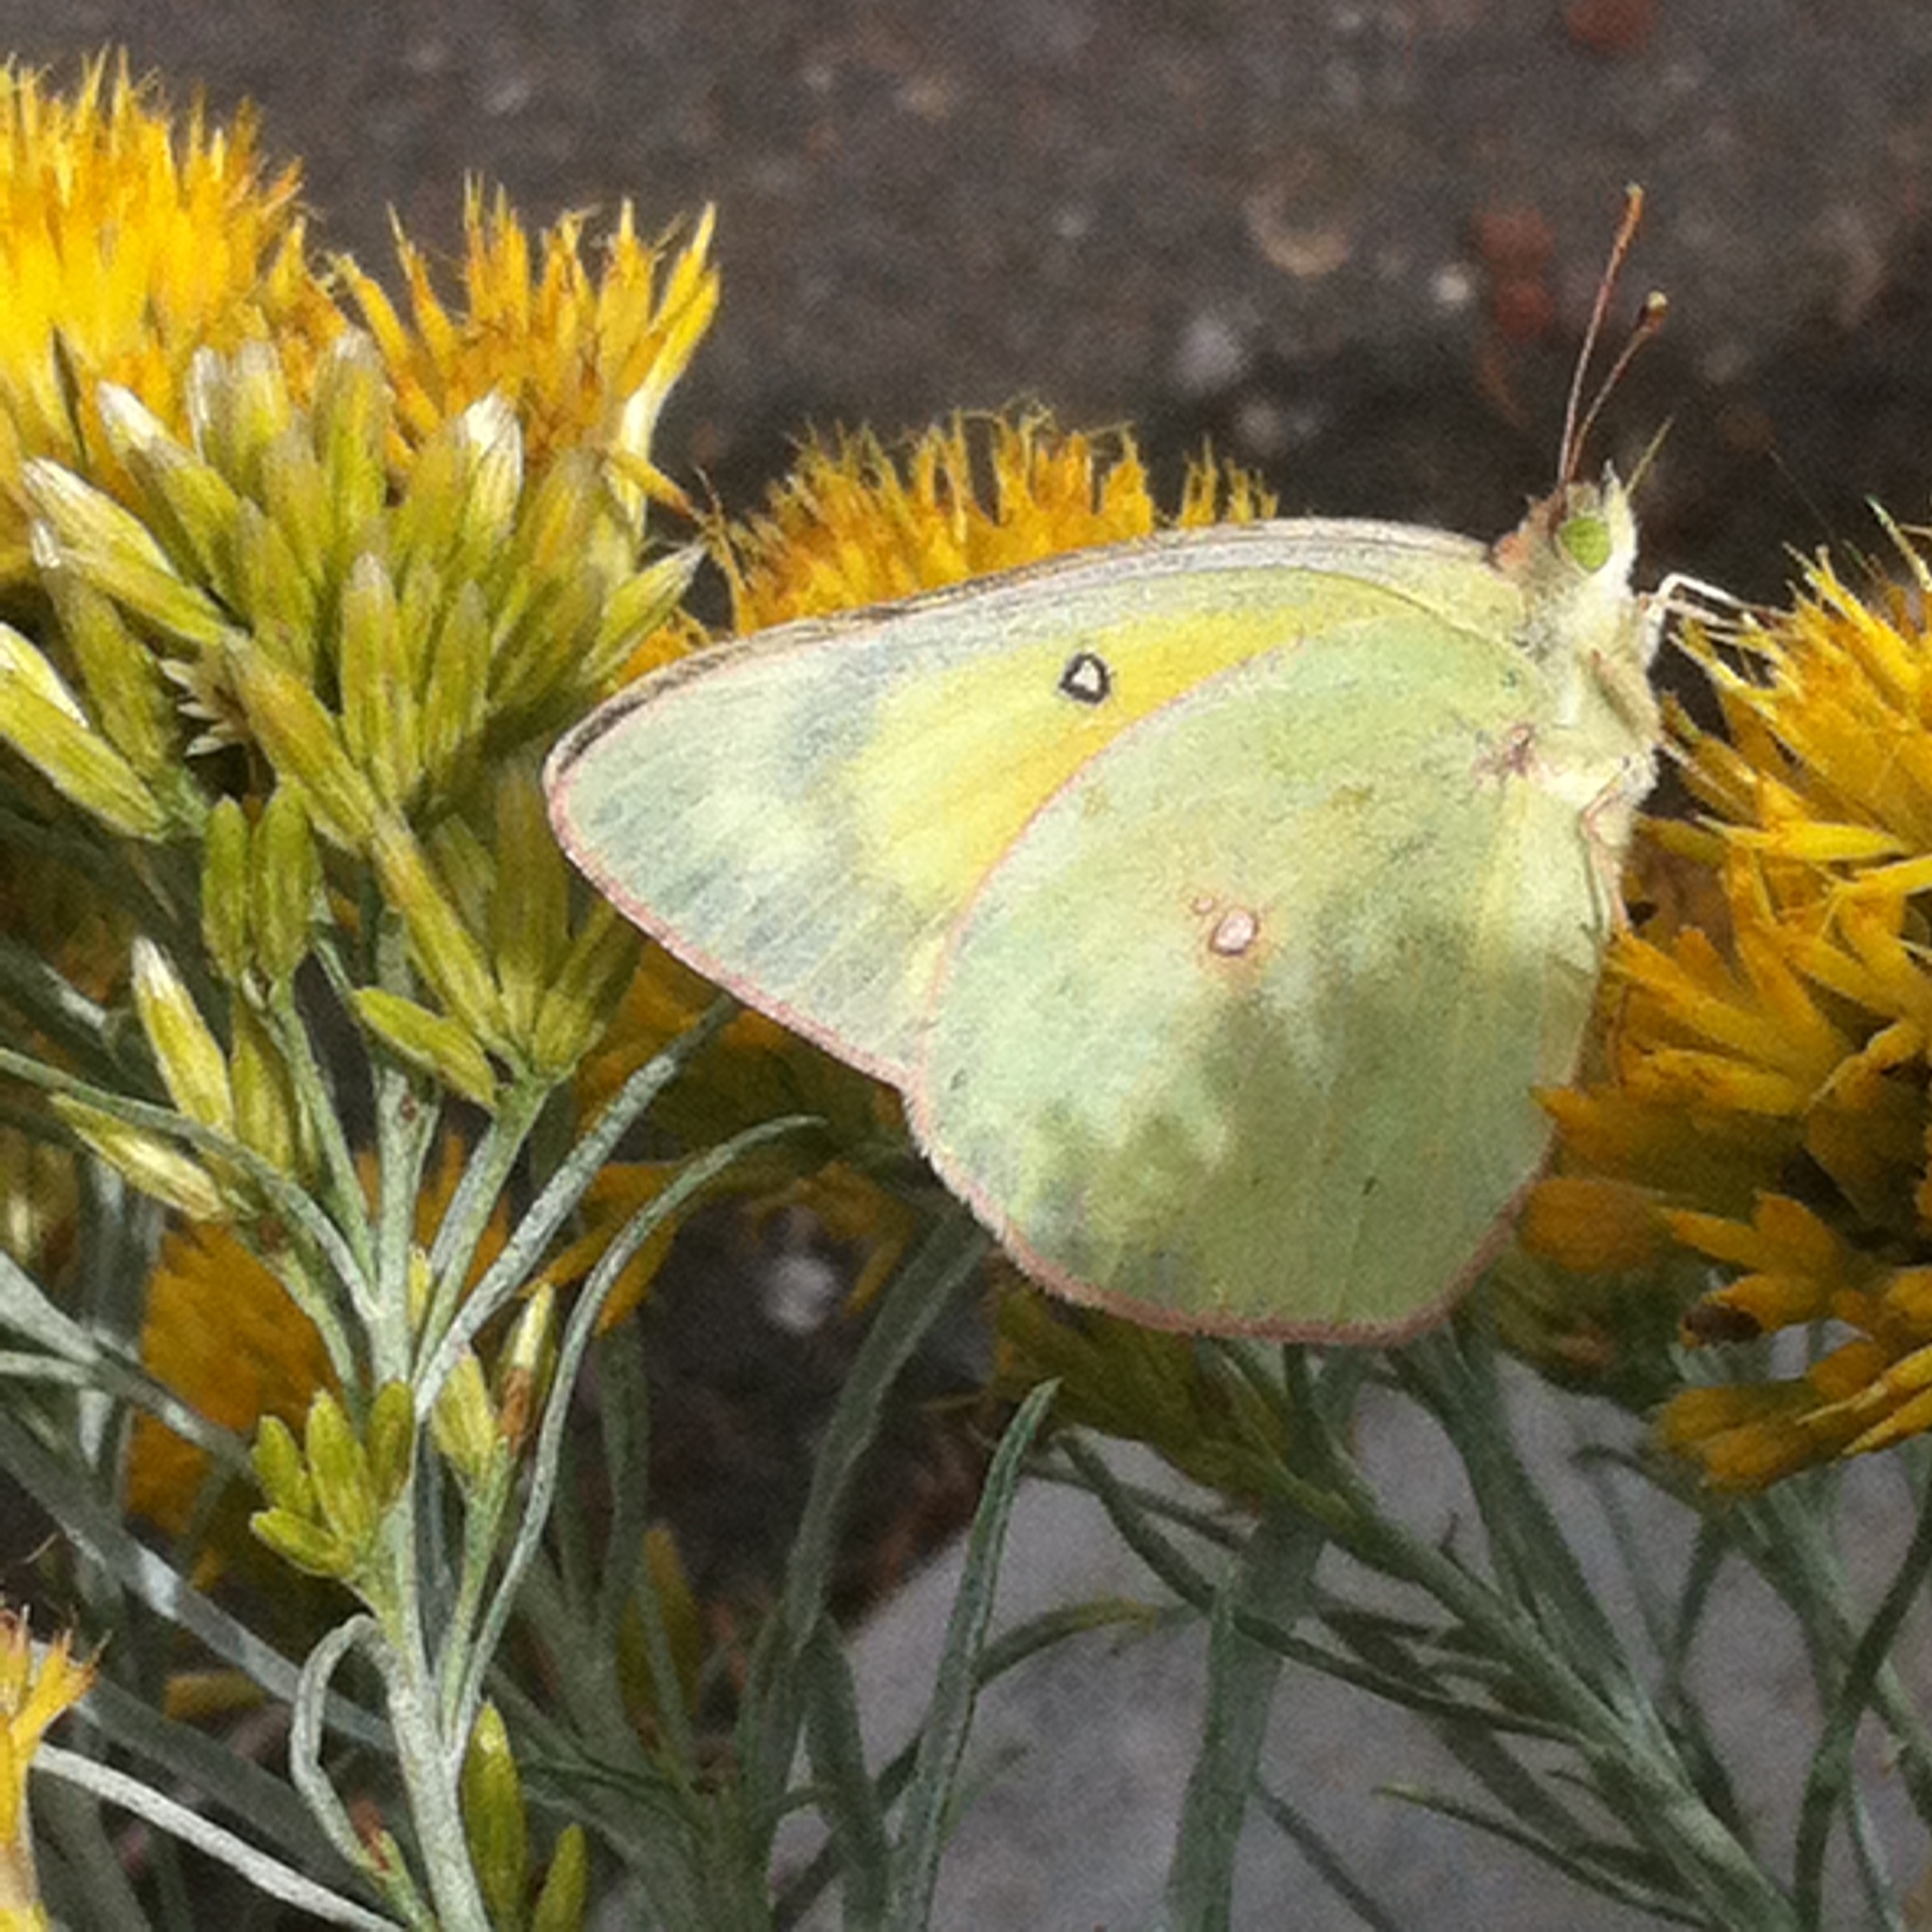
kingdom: Animalia
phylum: Arthropoda
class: Insecta
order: Lepidoptera
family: Pieridae
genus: Colias
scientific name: Colias eurytheme
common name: Alfalfa butterfly
